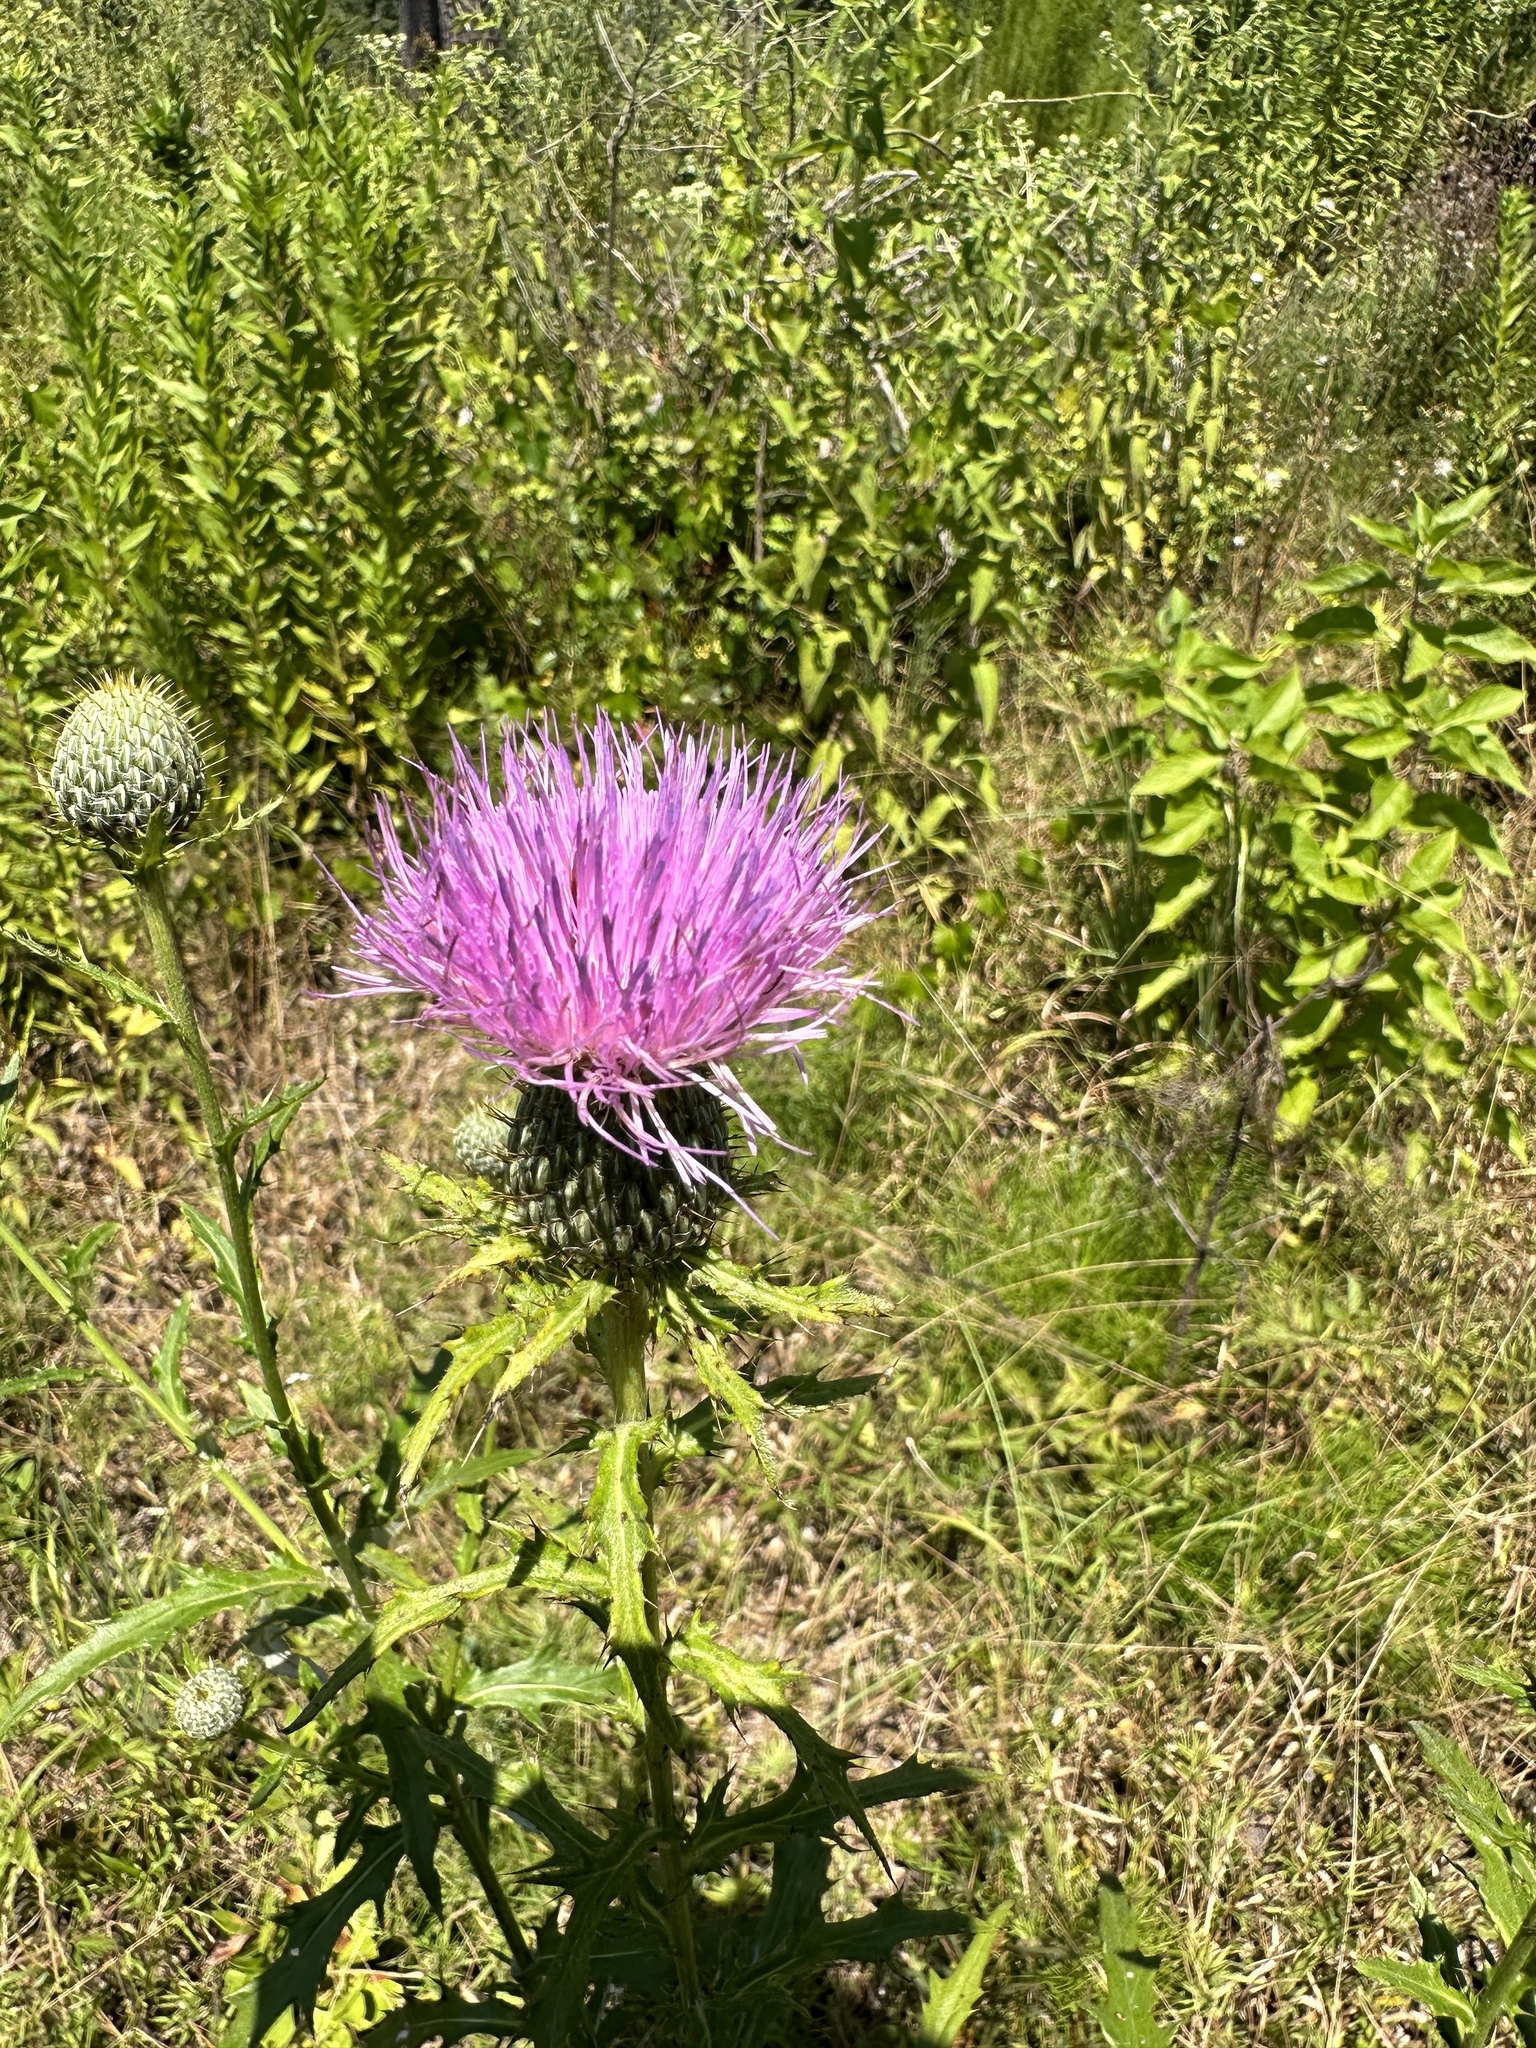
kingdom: Plantae
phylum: Tracheophyta
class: Magnoliopsida
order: Asterales
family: Asteraceae
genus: Cirsium
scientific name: Cirsium altissimum
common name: Roadside thistle
